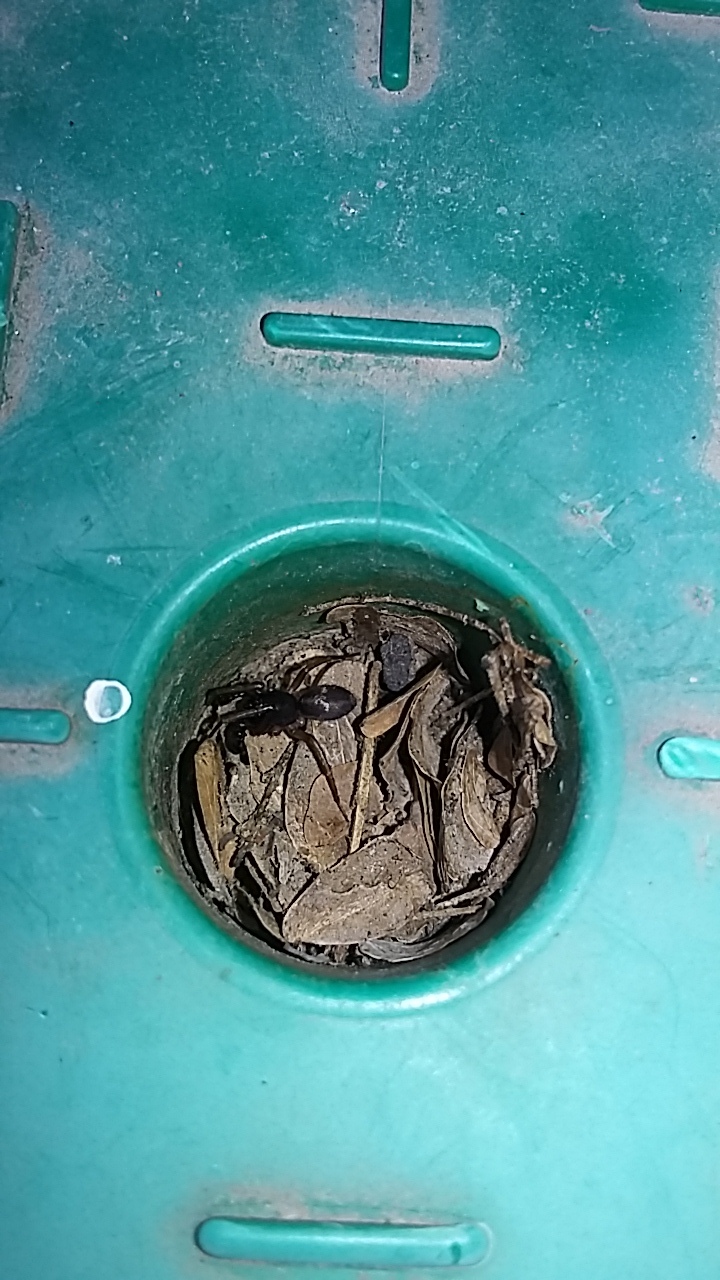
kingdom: Animalia
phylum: Arthropoda
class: Arachnida
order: Araneae
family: Corinnidae
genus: Falconina
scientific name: Falconina gracilis
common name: Antmimic spider
